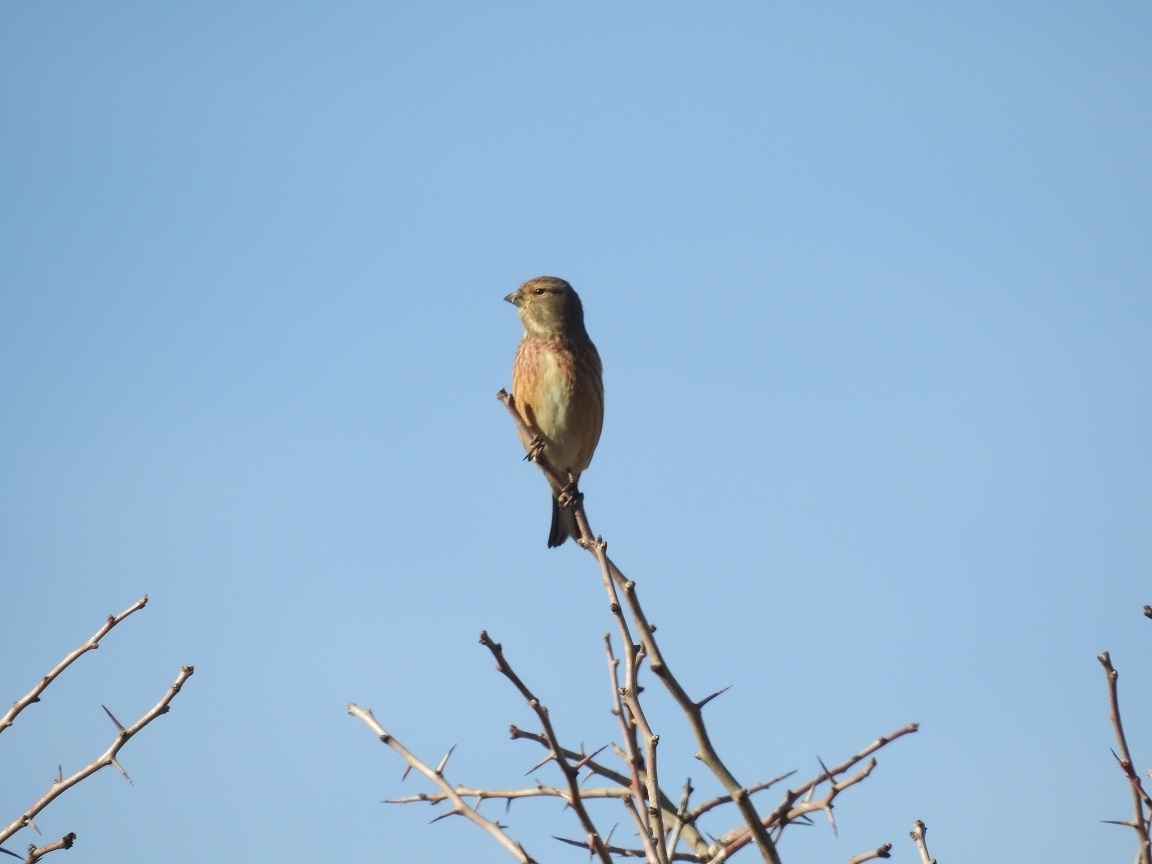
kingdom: Animalia
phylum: Chordata
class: Aves
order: Passeriformes
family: Fringillidae
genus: Linaria
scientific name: Linaria cannabina
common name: Common linnet
